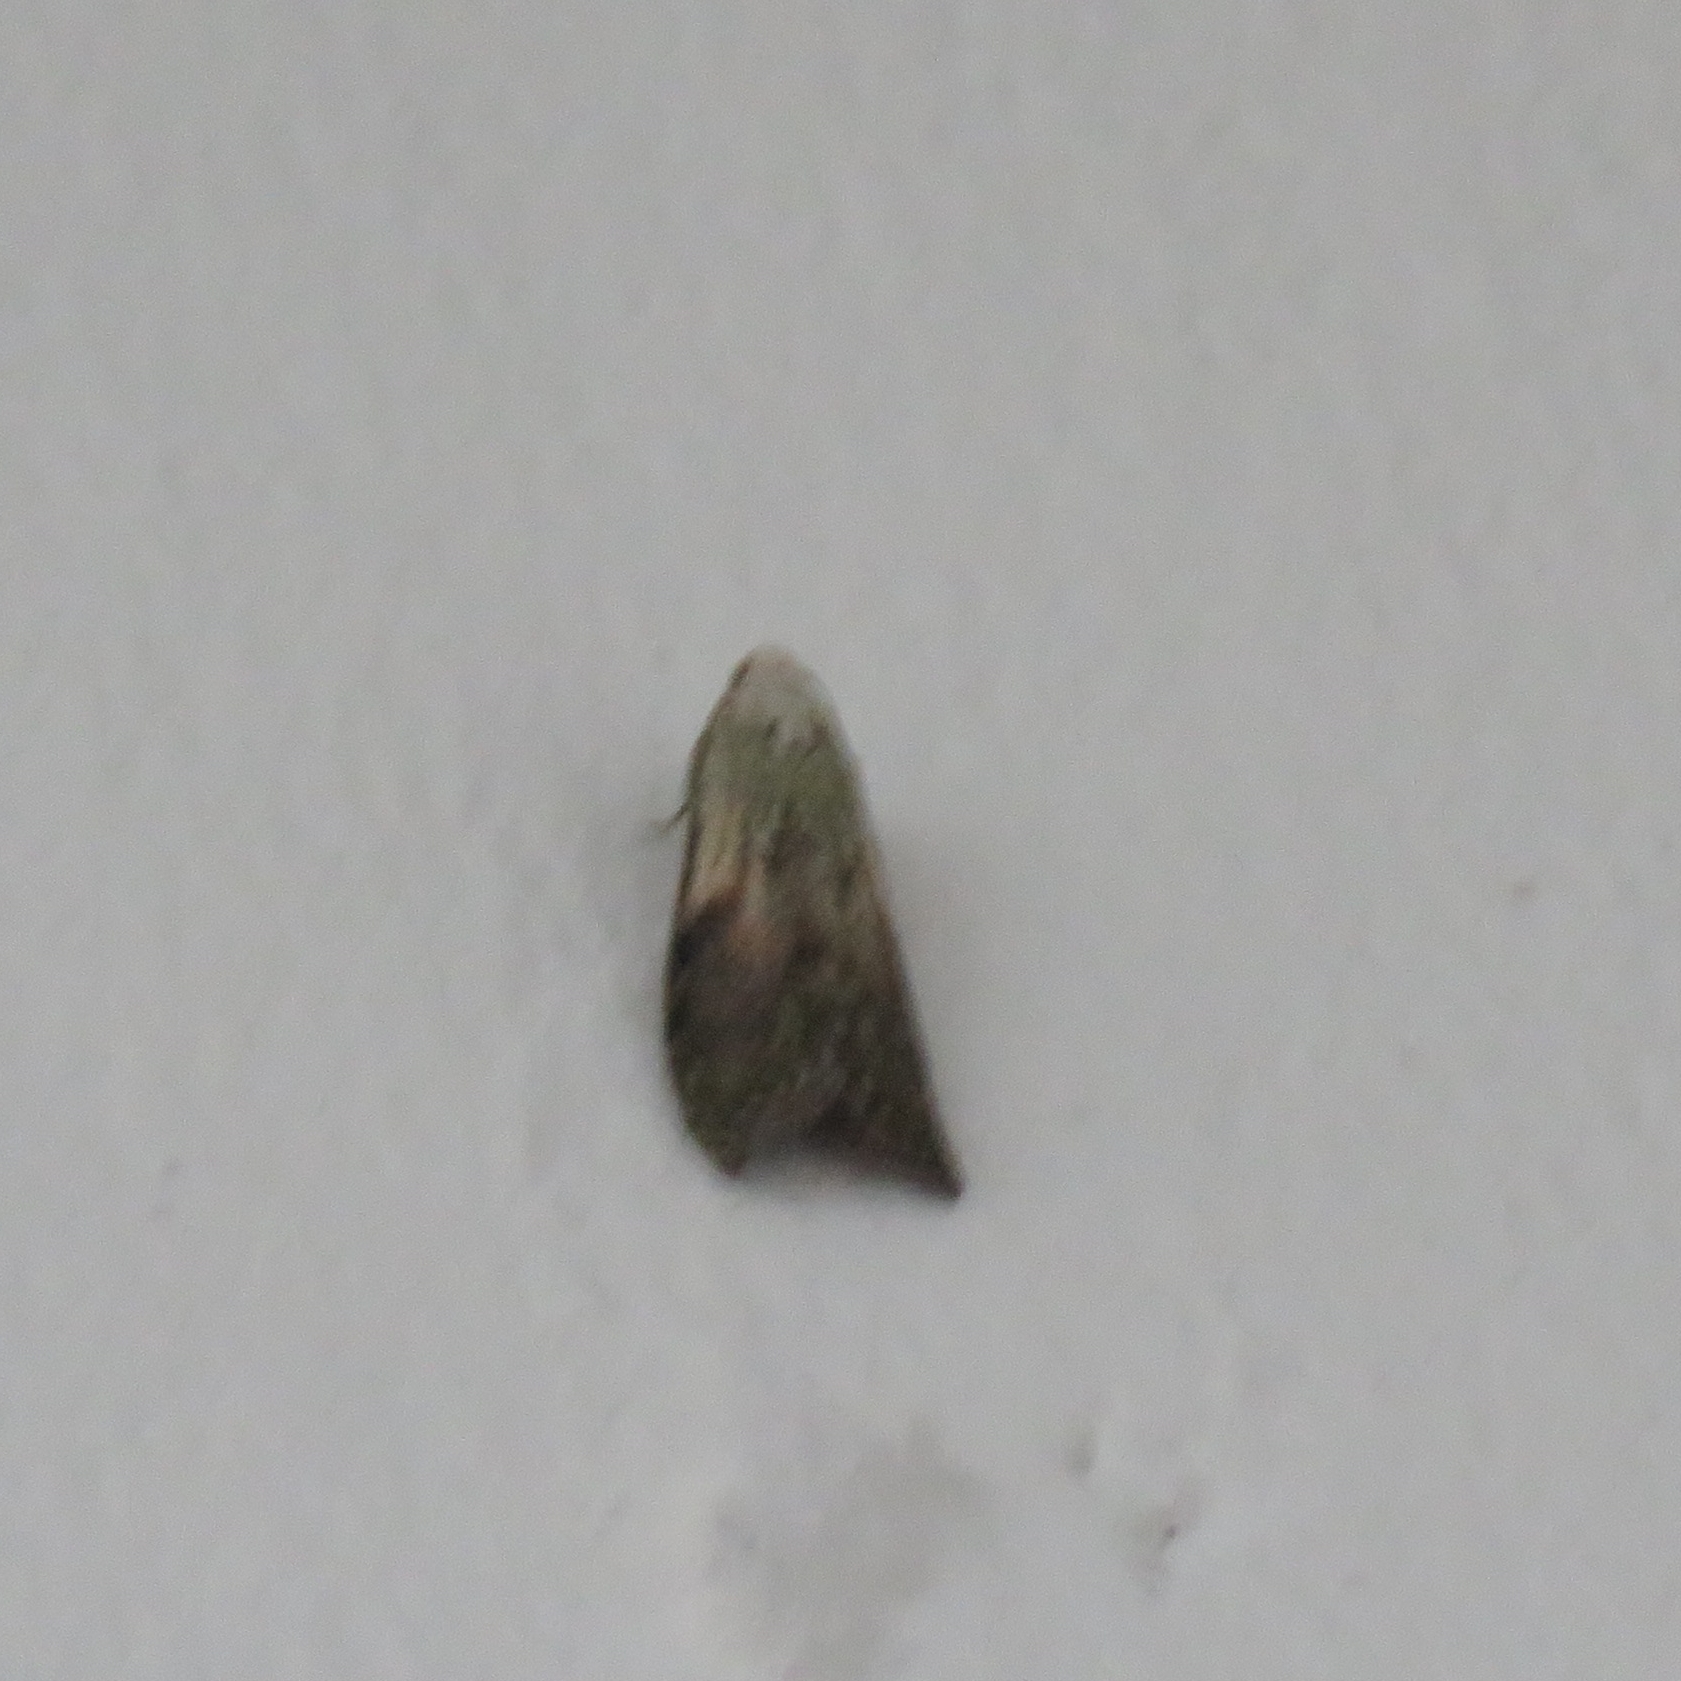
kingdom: Animalia
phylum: Arthropoda
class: Insecta
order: Lepidoptera
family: Pyralidae
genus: Aphomia
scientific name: Aphomia sociella
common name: Bee moth
